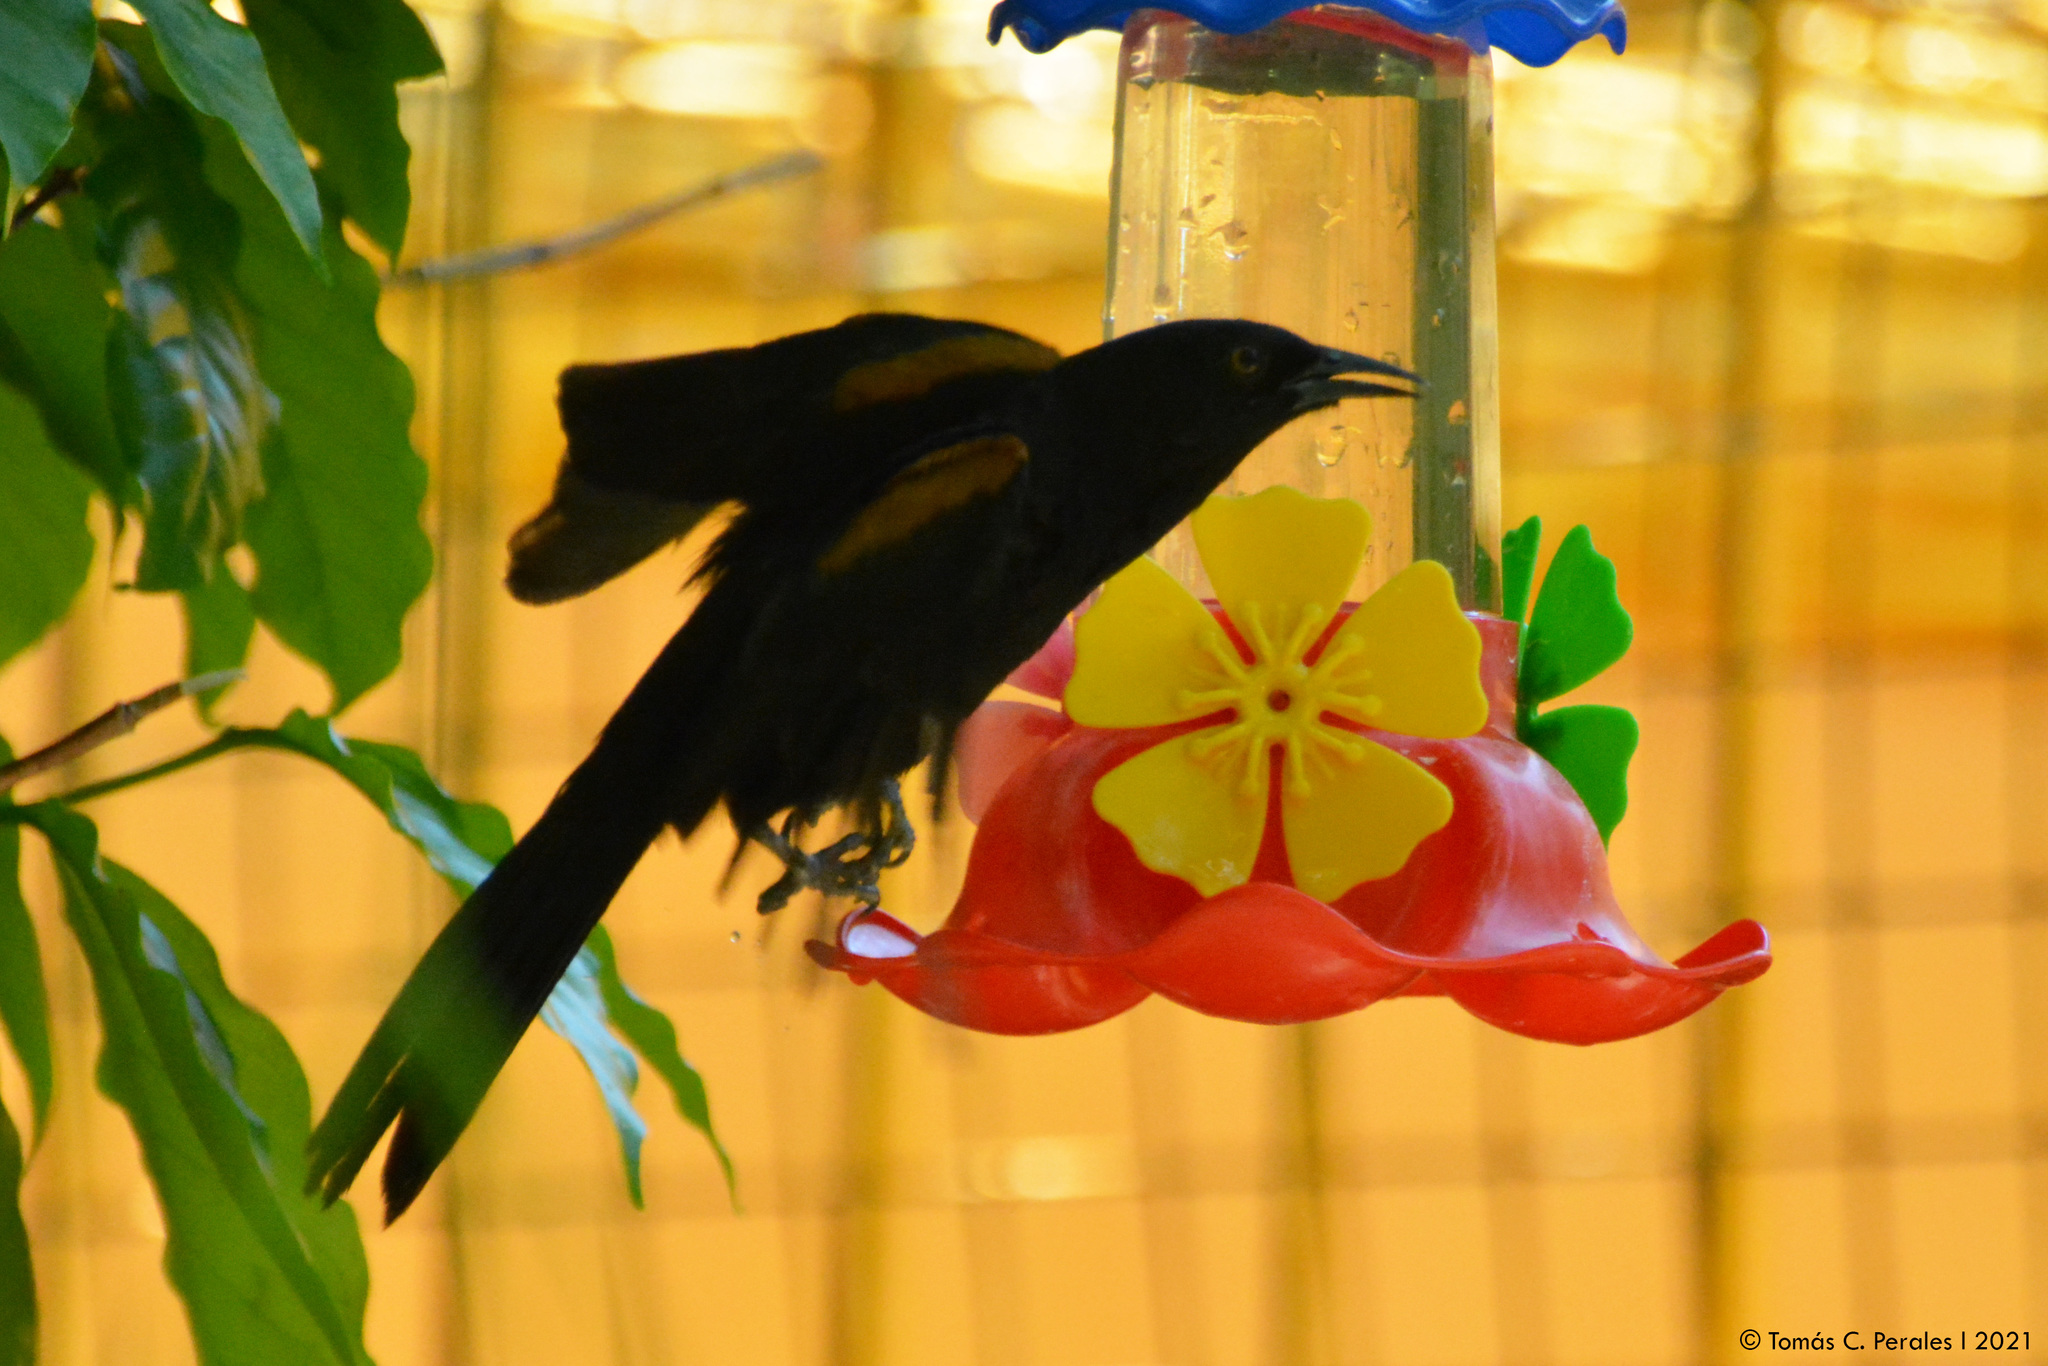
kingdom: Animalia
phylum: Chordata
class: Aves
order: Passeriformes
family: Icteridae
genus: Icterus
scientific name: Icterus cayanensis
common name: Epaulet oriole
